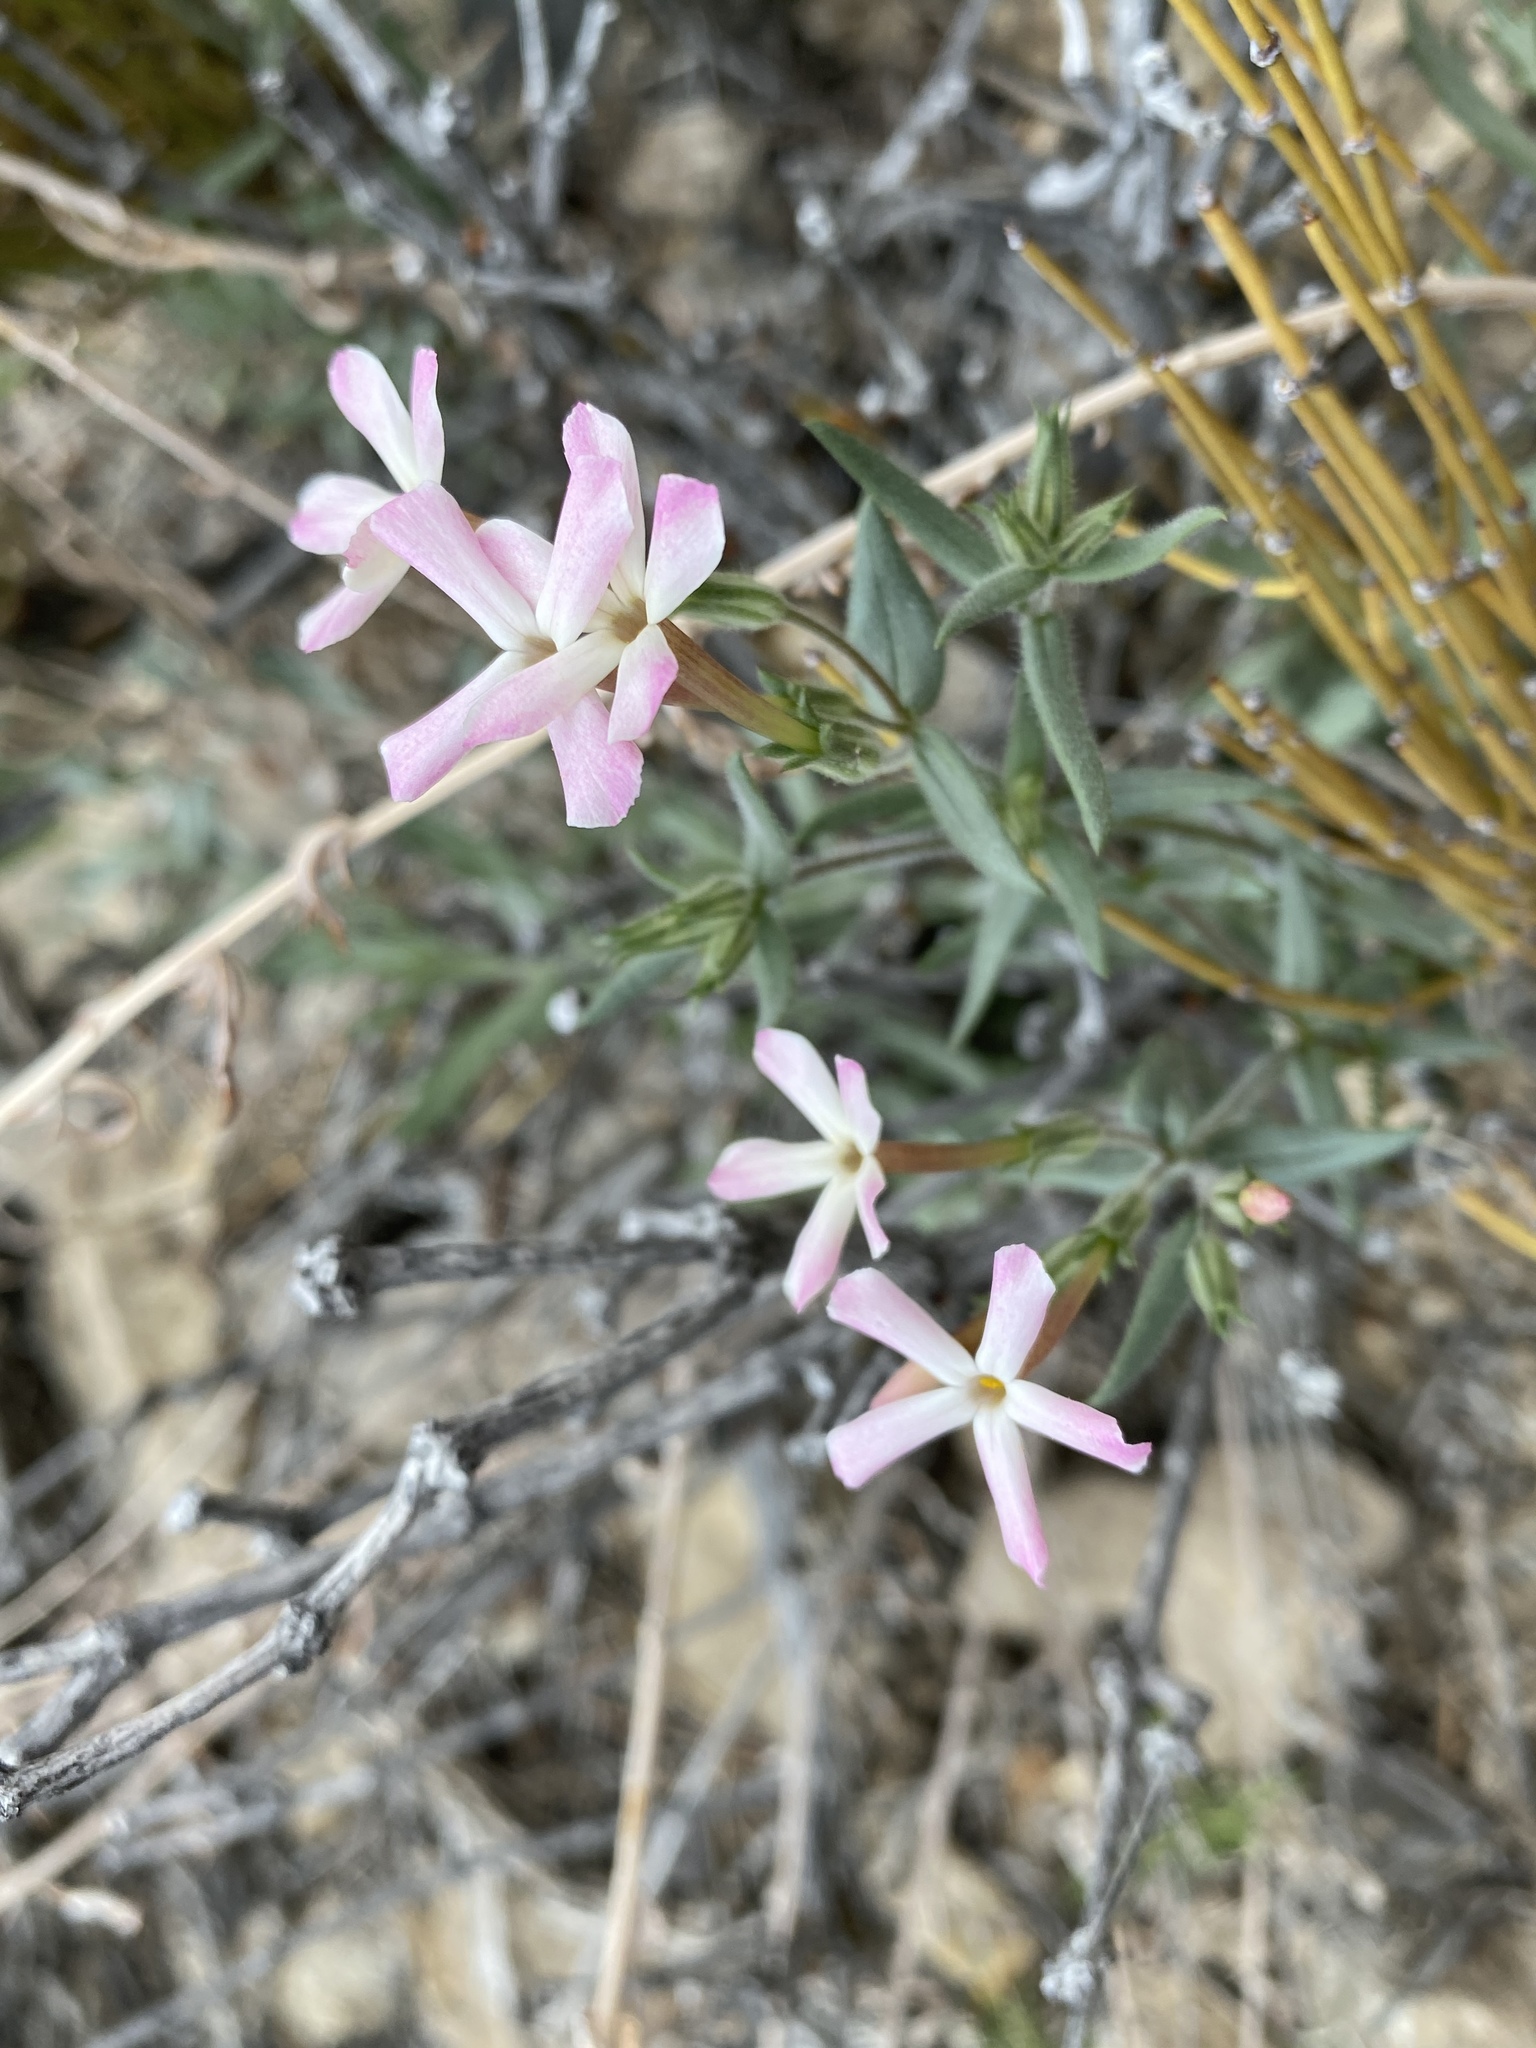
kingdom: Plantae
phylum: Tracheophyta
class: Magnoliopsida
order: Ericales
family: Polemoniaceae
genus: Phlox
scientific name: Phlox longifolia
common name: Longleaf phlox
